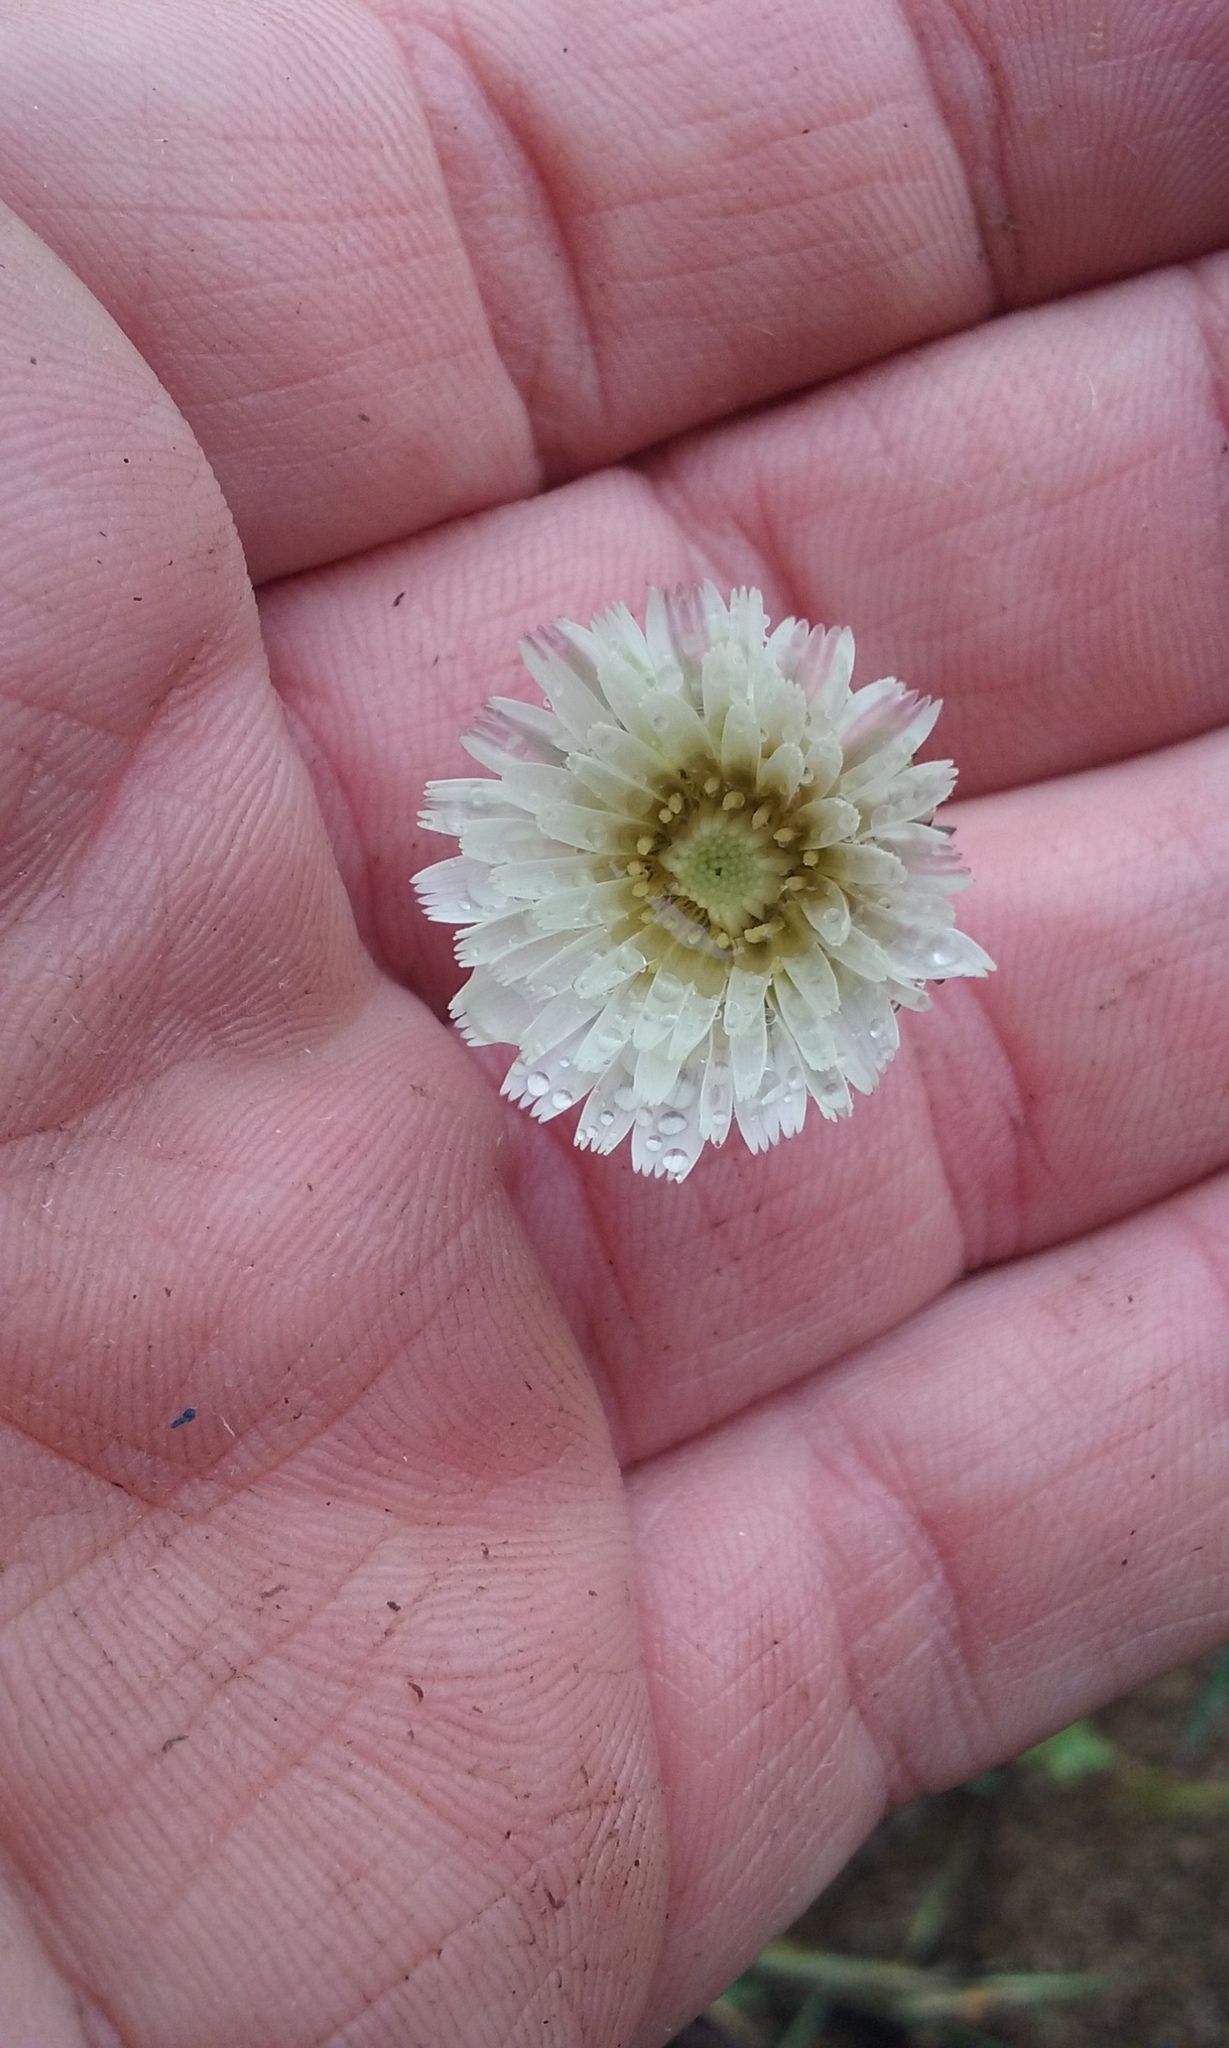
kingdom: Plantae
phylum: Tracheophyta
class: Magnoliopsida
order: Asterales
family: Asteraceae
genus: Rafinesquia
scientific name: Rafinesquia californica
